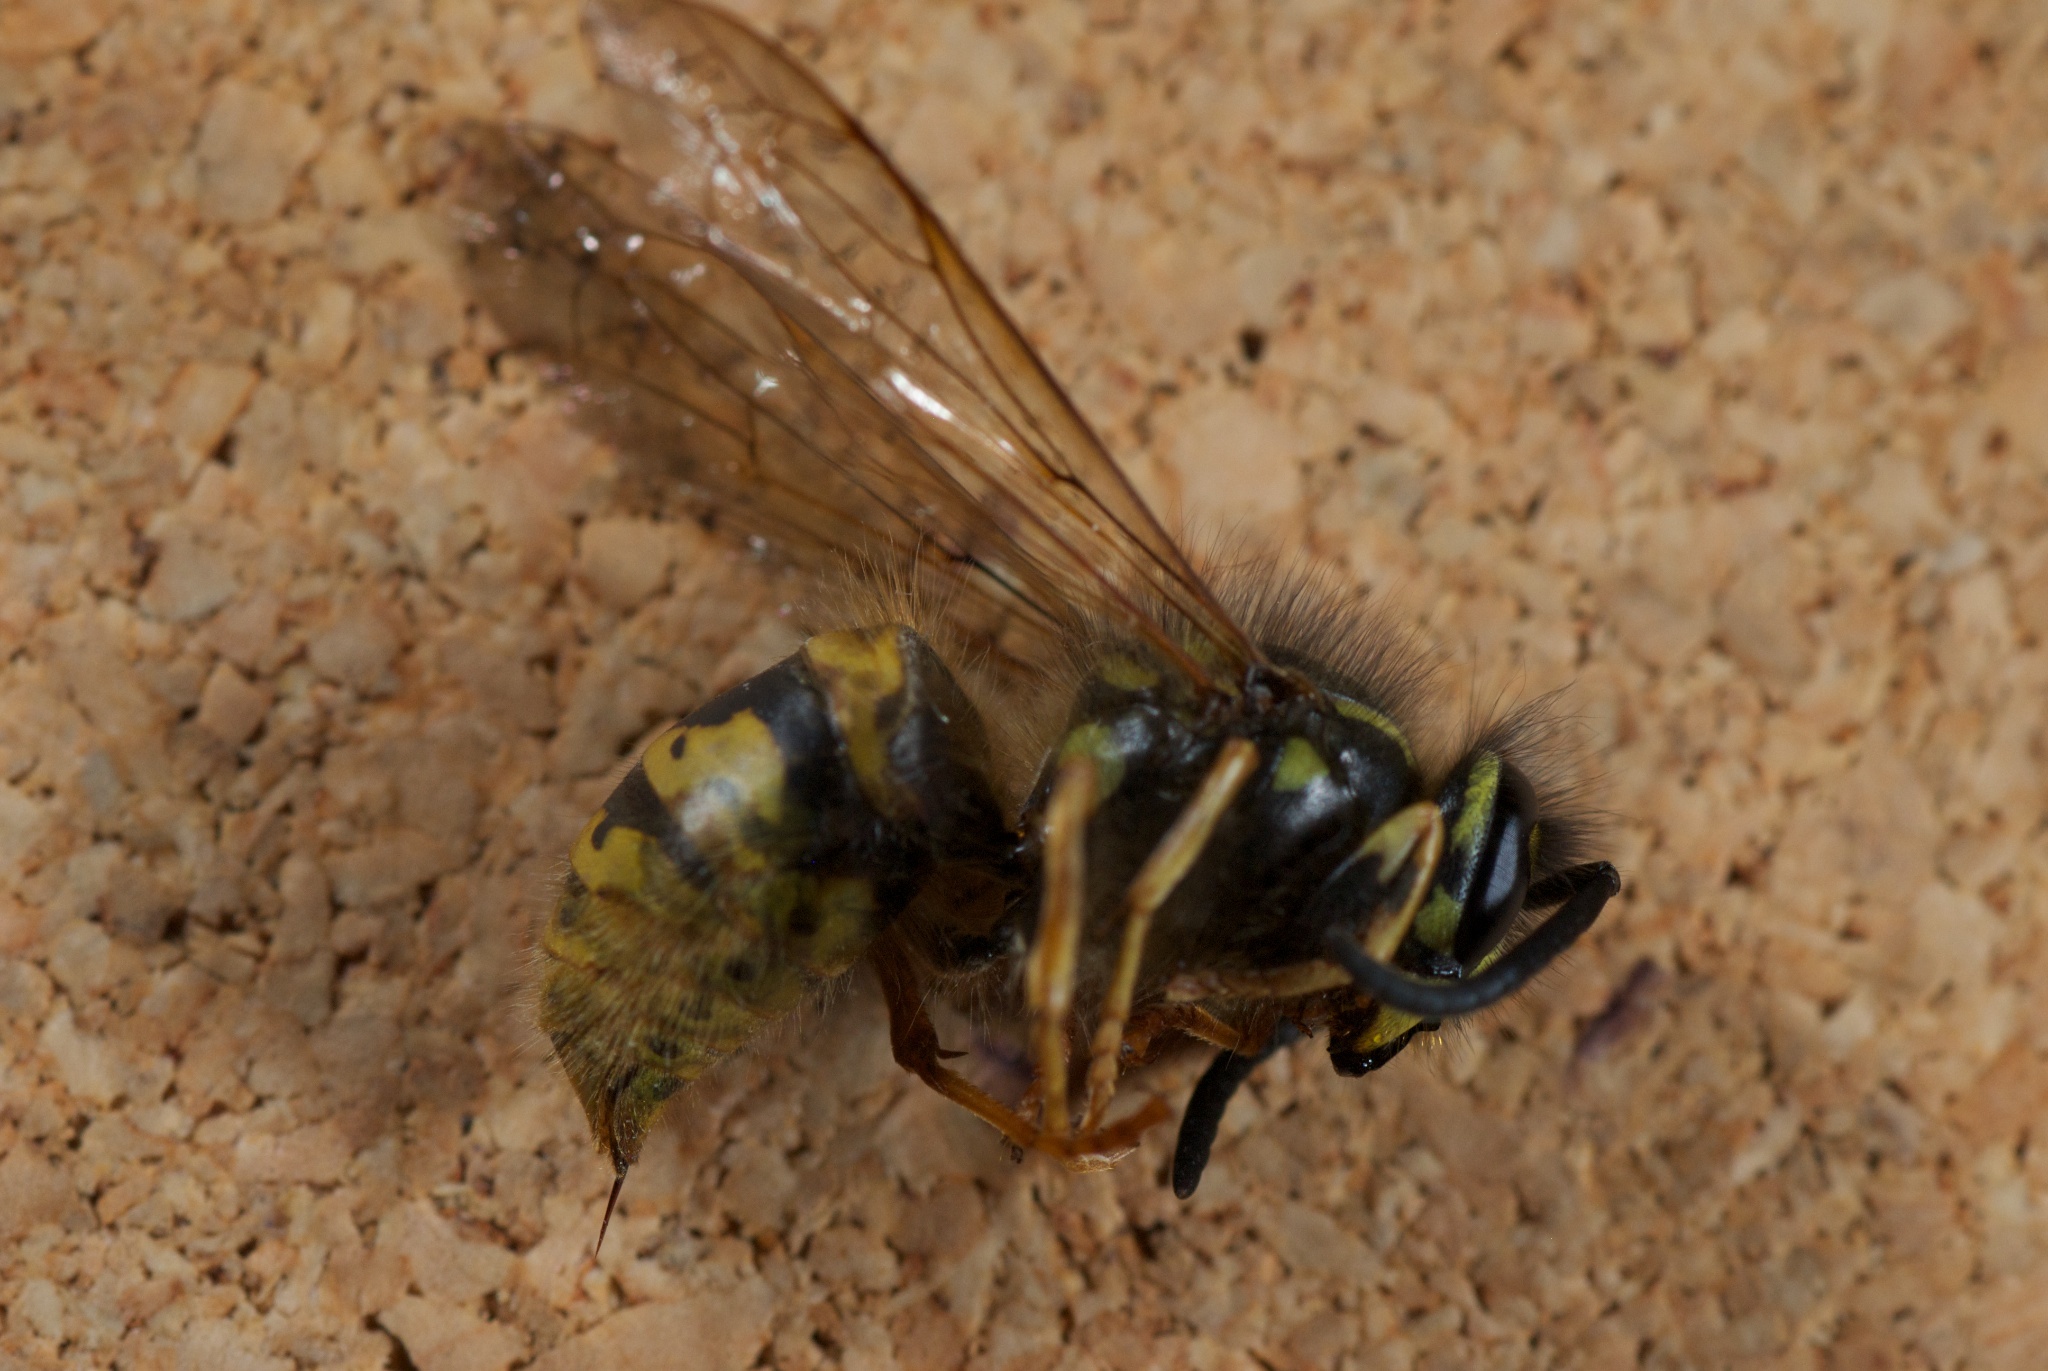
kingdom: Animalia
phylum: Arthropoda
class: Insecta
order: Hymenoptera
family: Vespidae
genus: Vespula
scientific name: Vespula vulgaris
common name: Common wasp
